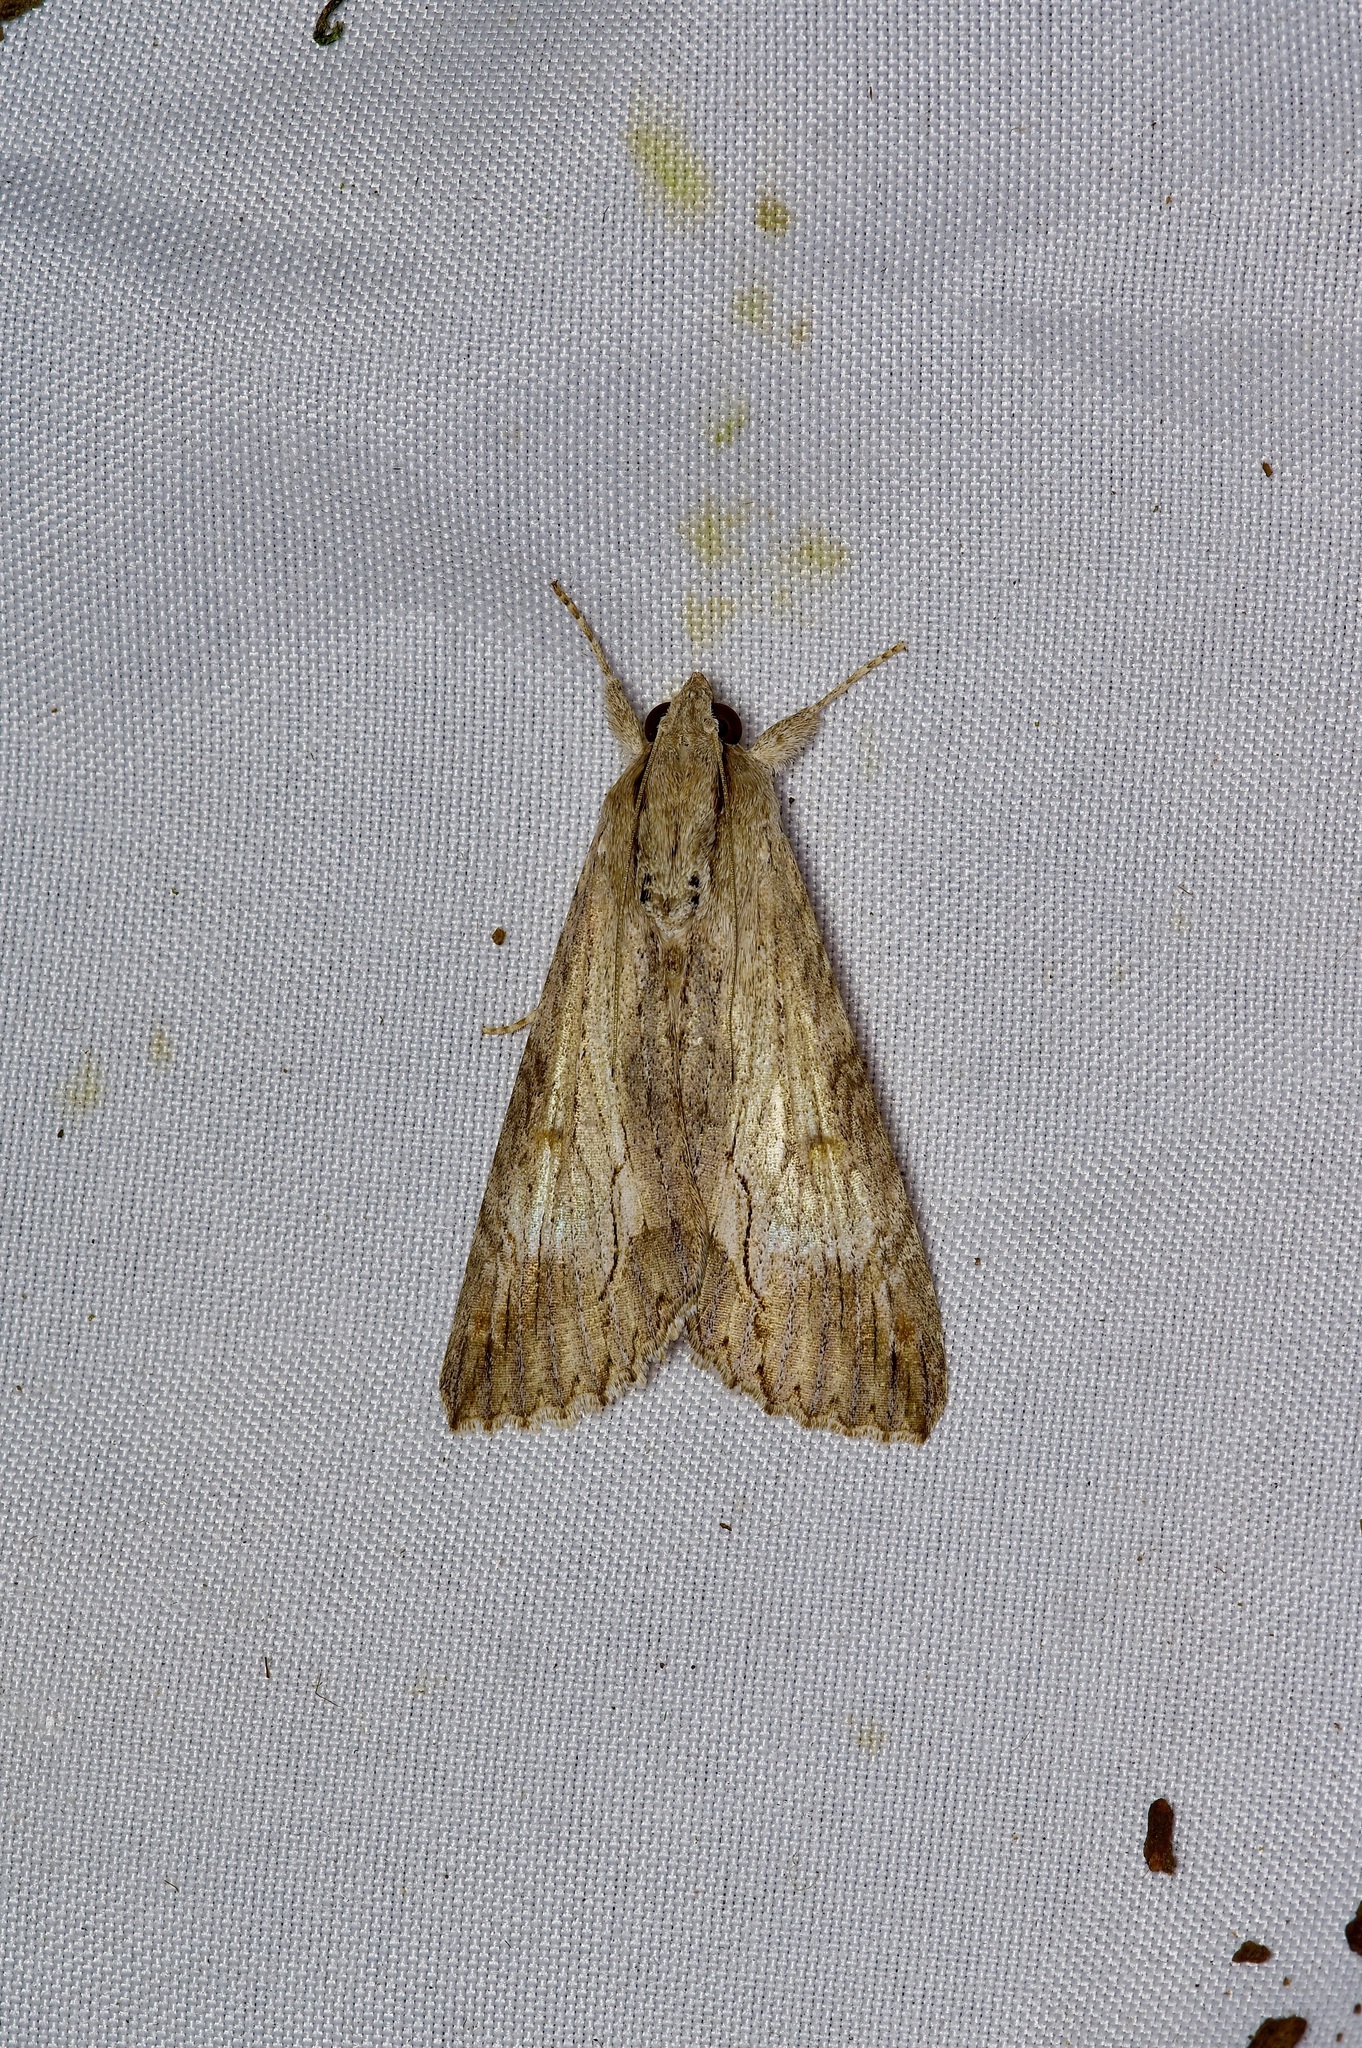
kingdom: Animalia
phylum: Arthropoda
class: Insecta
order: Lepidoptera
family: Erebidae
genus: Melipotis
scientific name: Melipotis acontioides
